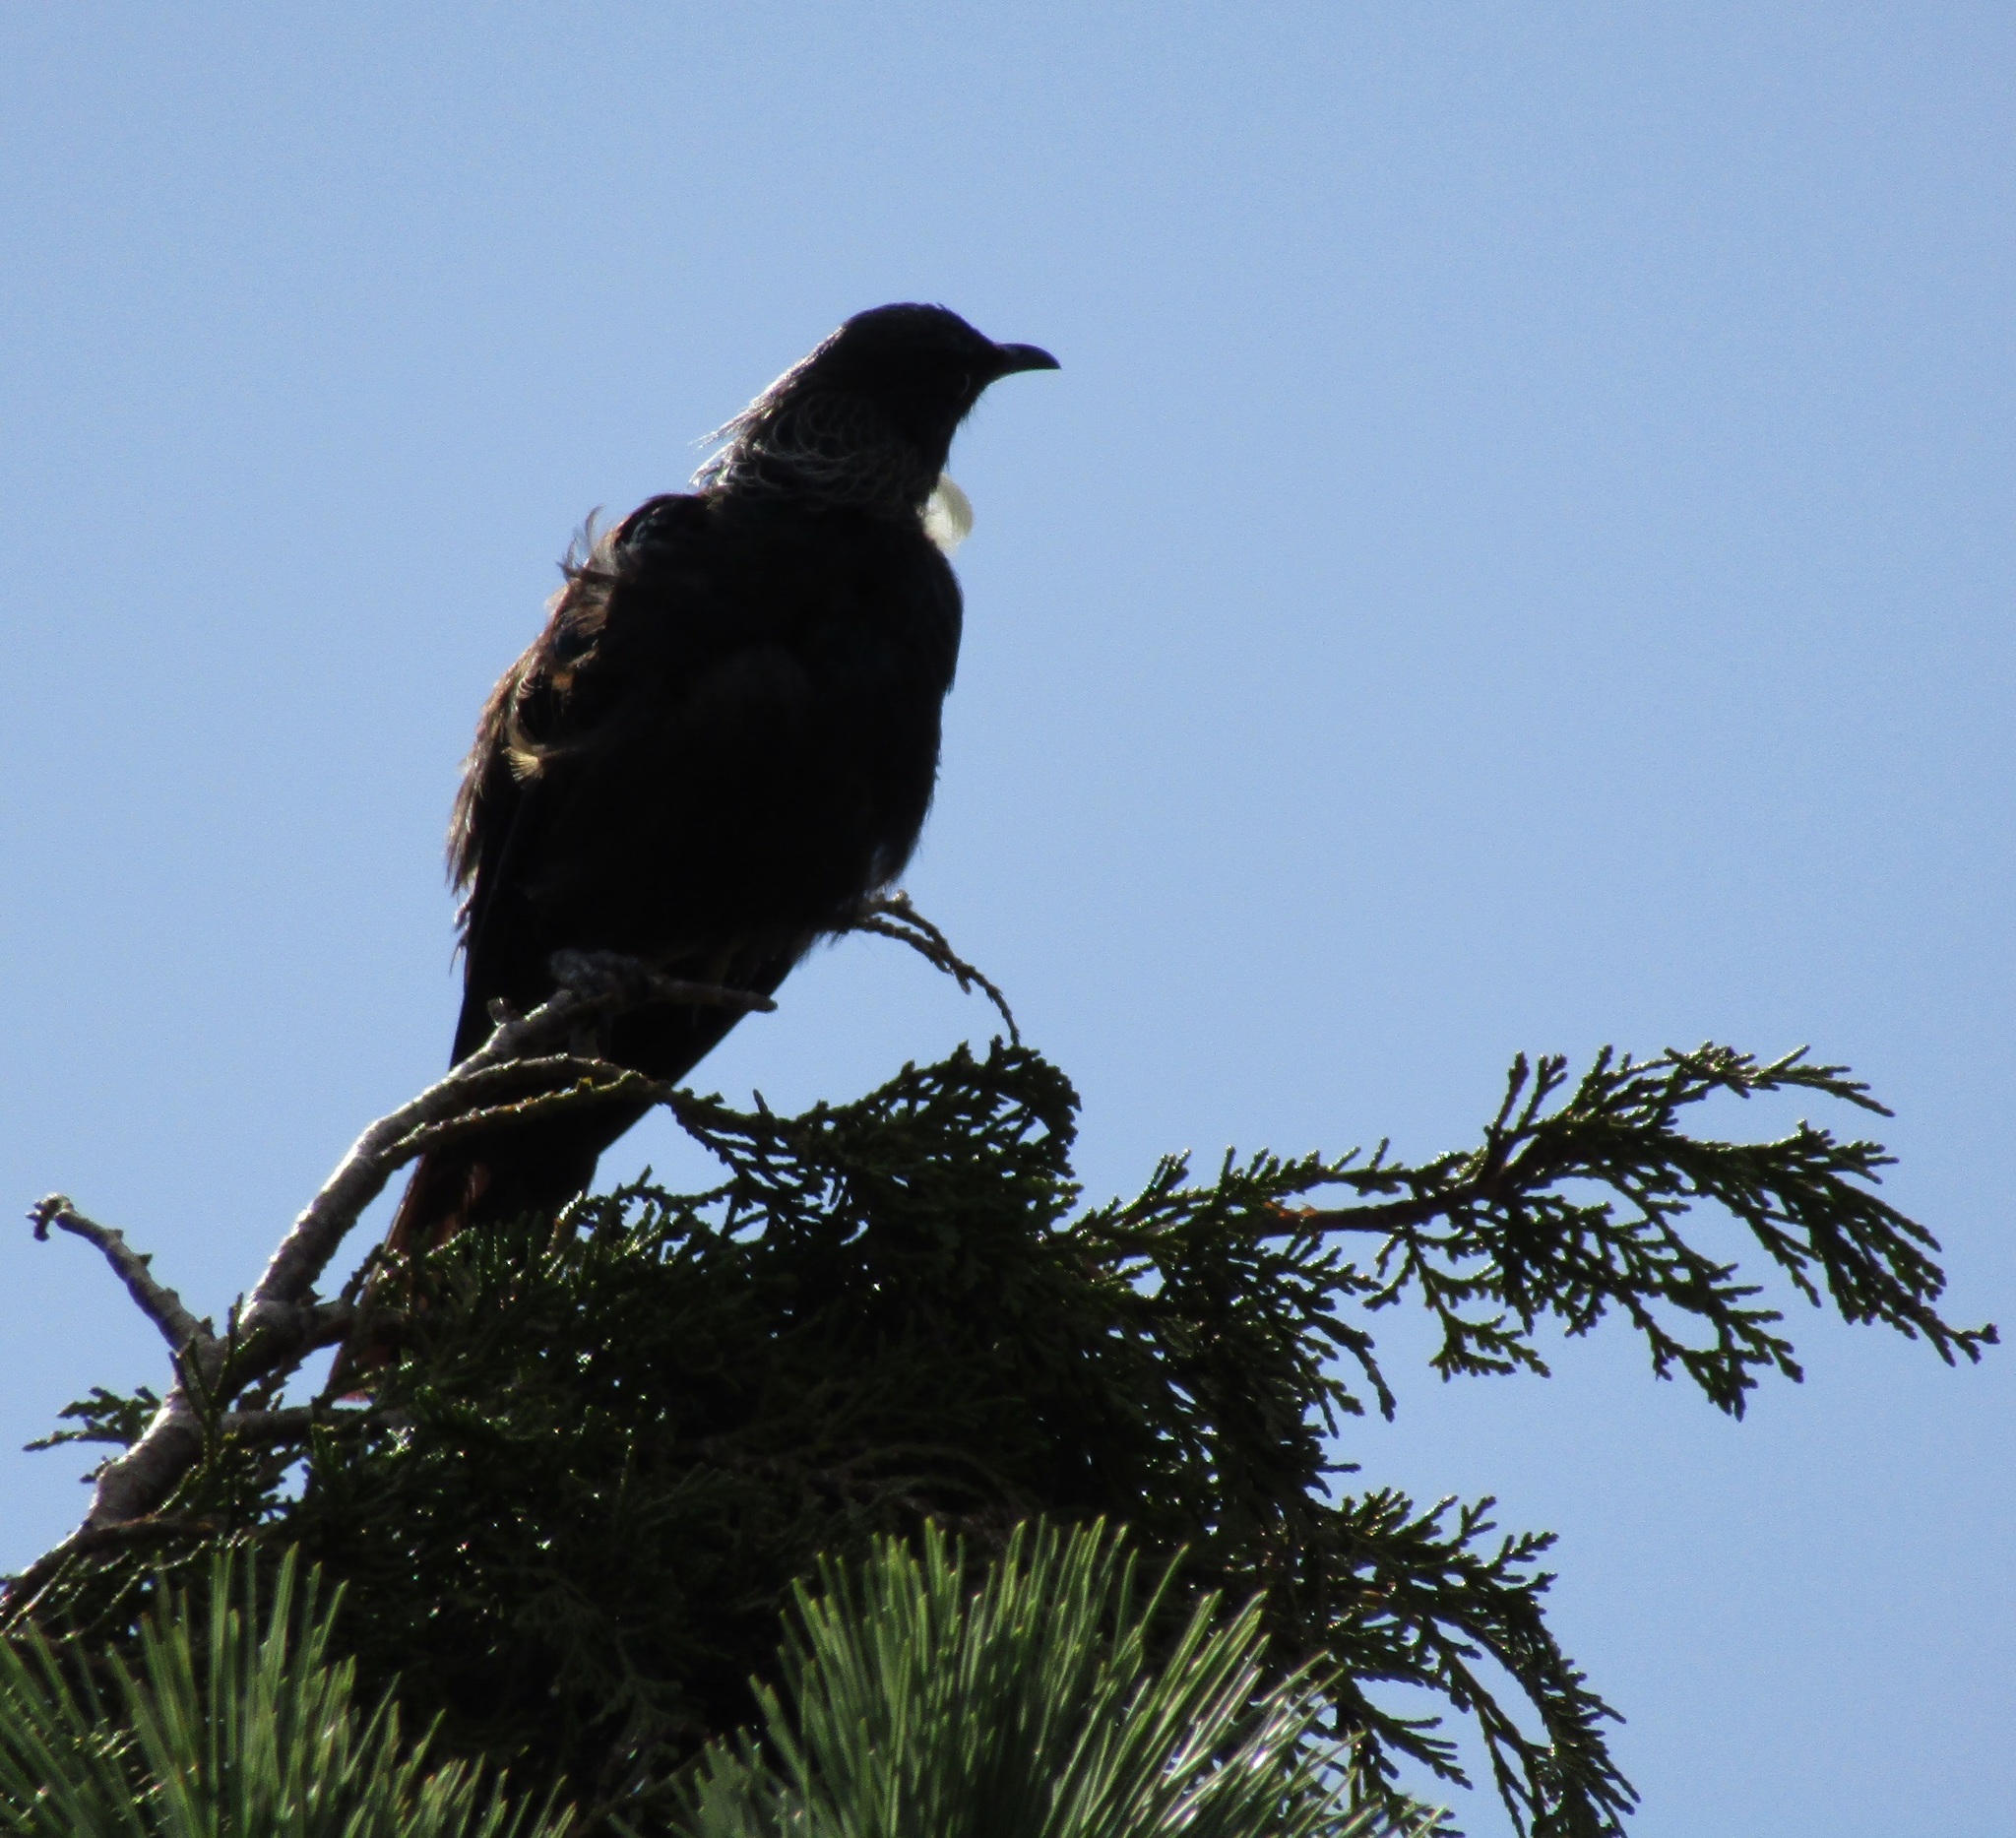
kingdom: Animalia
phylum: Chordata
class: Aves
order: Passeriformes
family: Meliphagidae
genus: Prosthemadera
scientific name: Prosthemadera novaeseelandiae
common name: Tui
